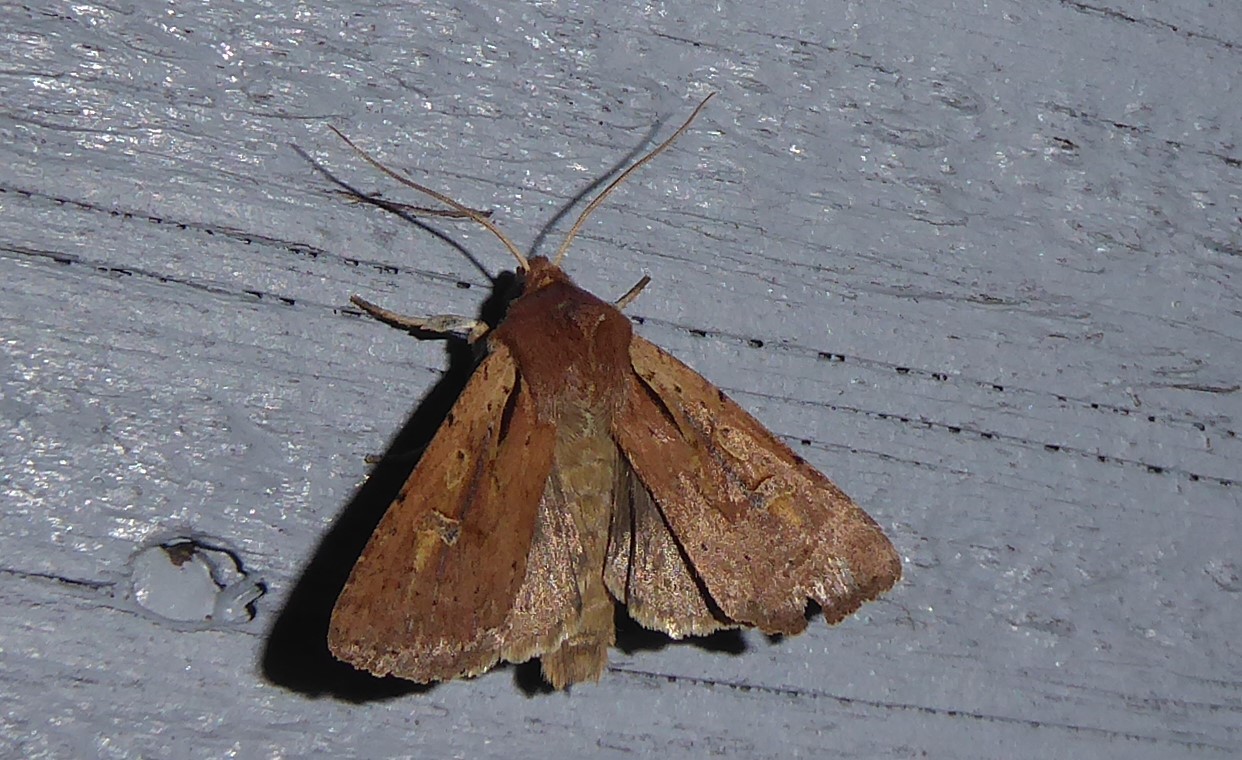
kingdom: Animalia
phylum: Arthropoda
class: Insecta
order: Lepidoptera
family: Noctuidae
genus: Ichneutica
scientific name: Ichneutica atristriga
